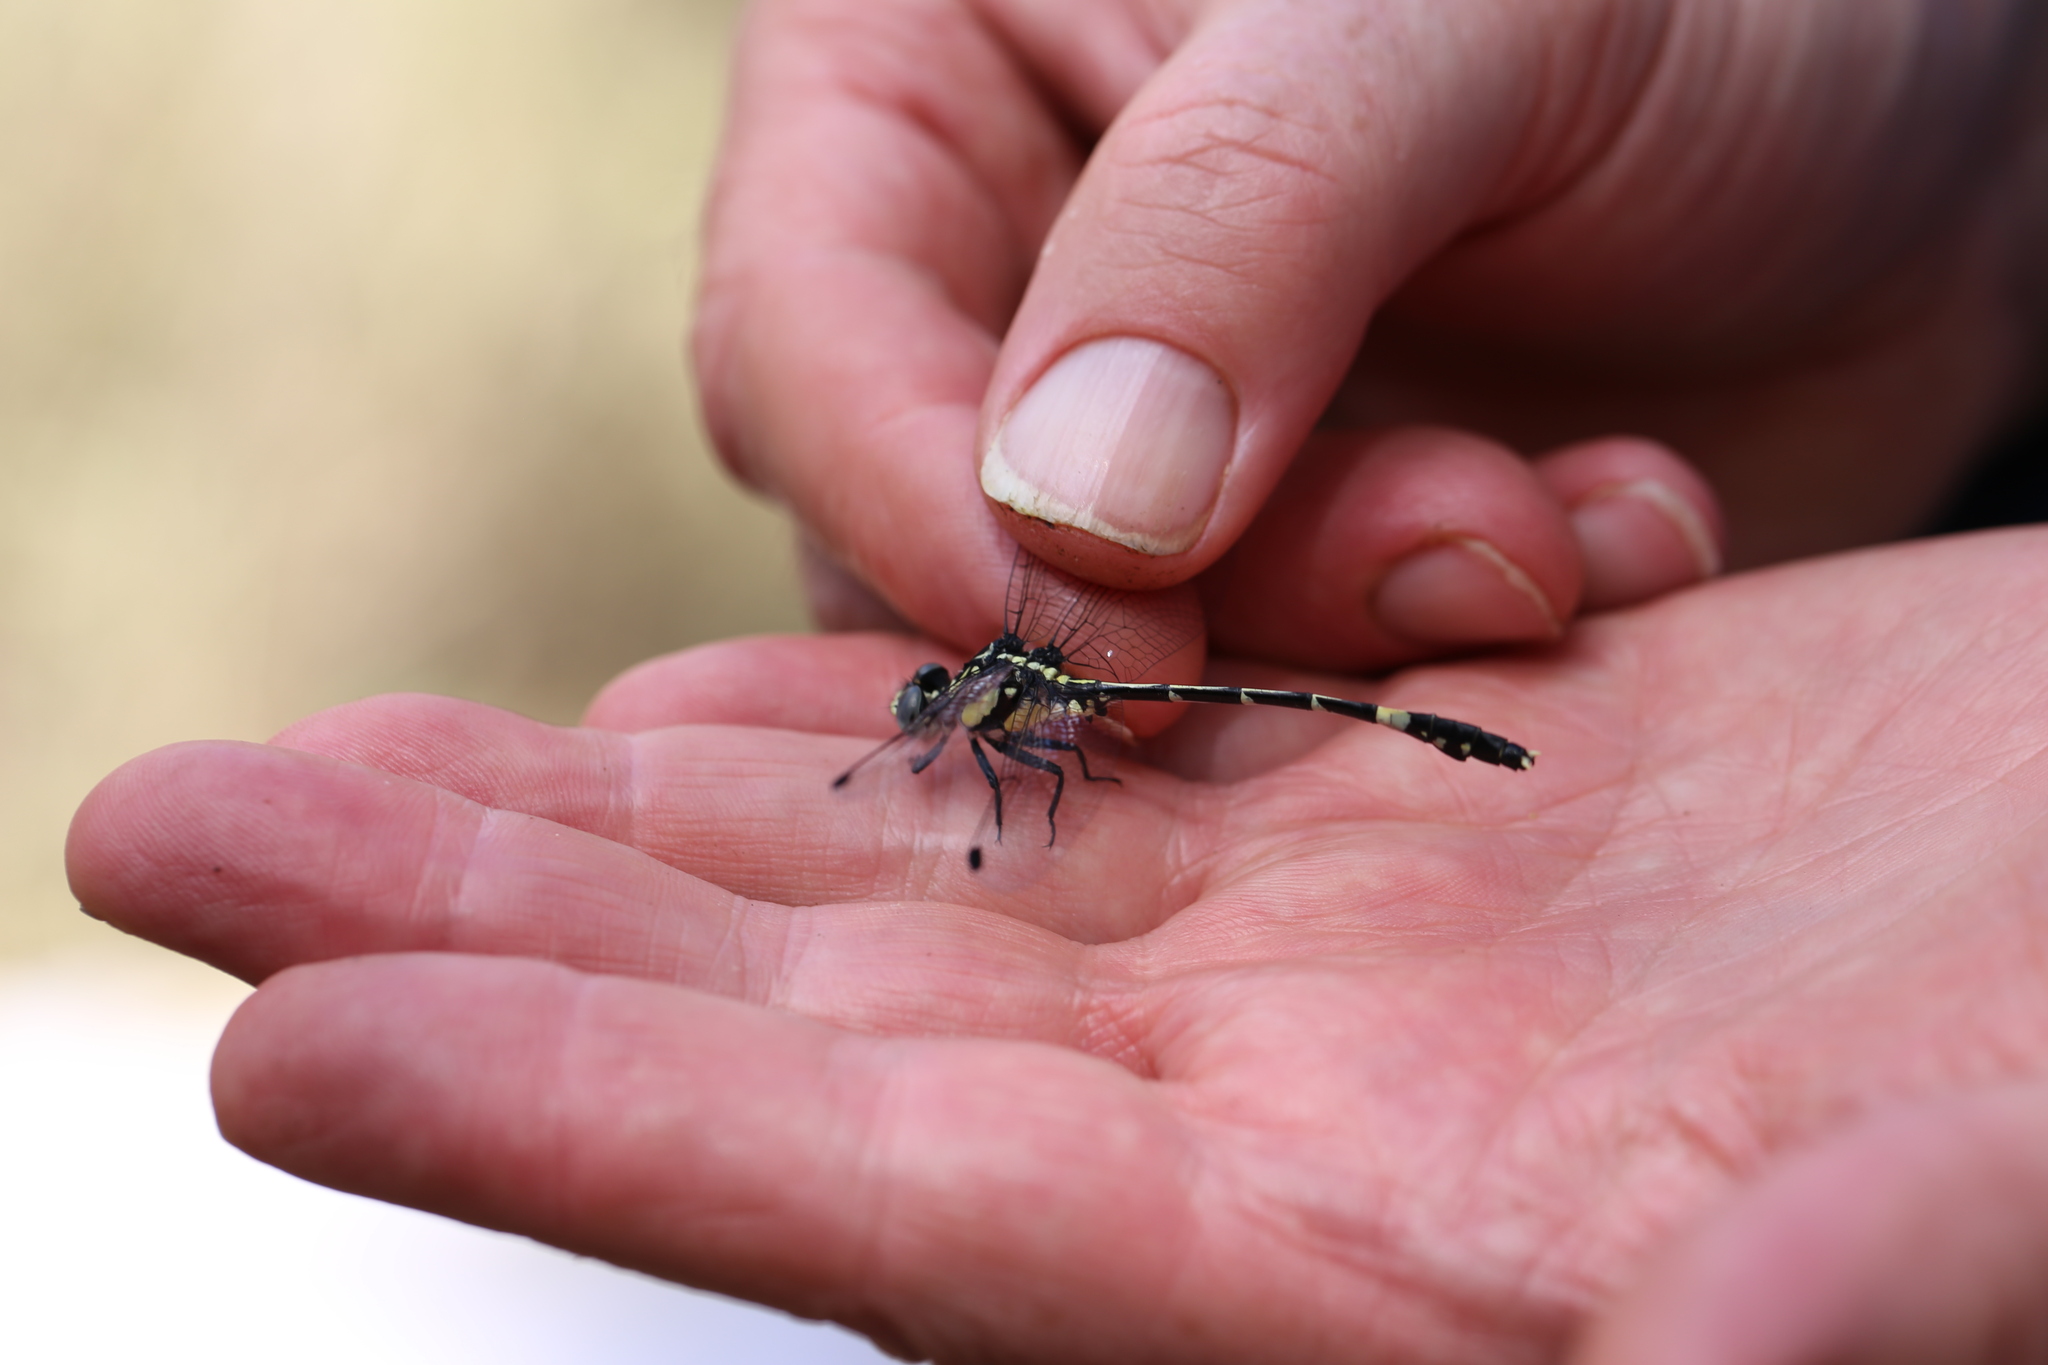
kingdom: Animalia
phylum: Arthropoda
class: Insecta
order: Odonata
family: Gomphidae
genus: Austroepigomphus
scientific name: Austroepigomphus praeruptus
